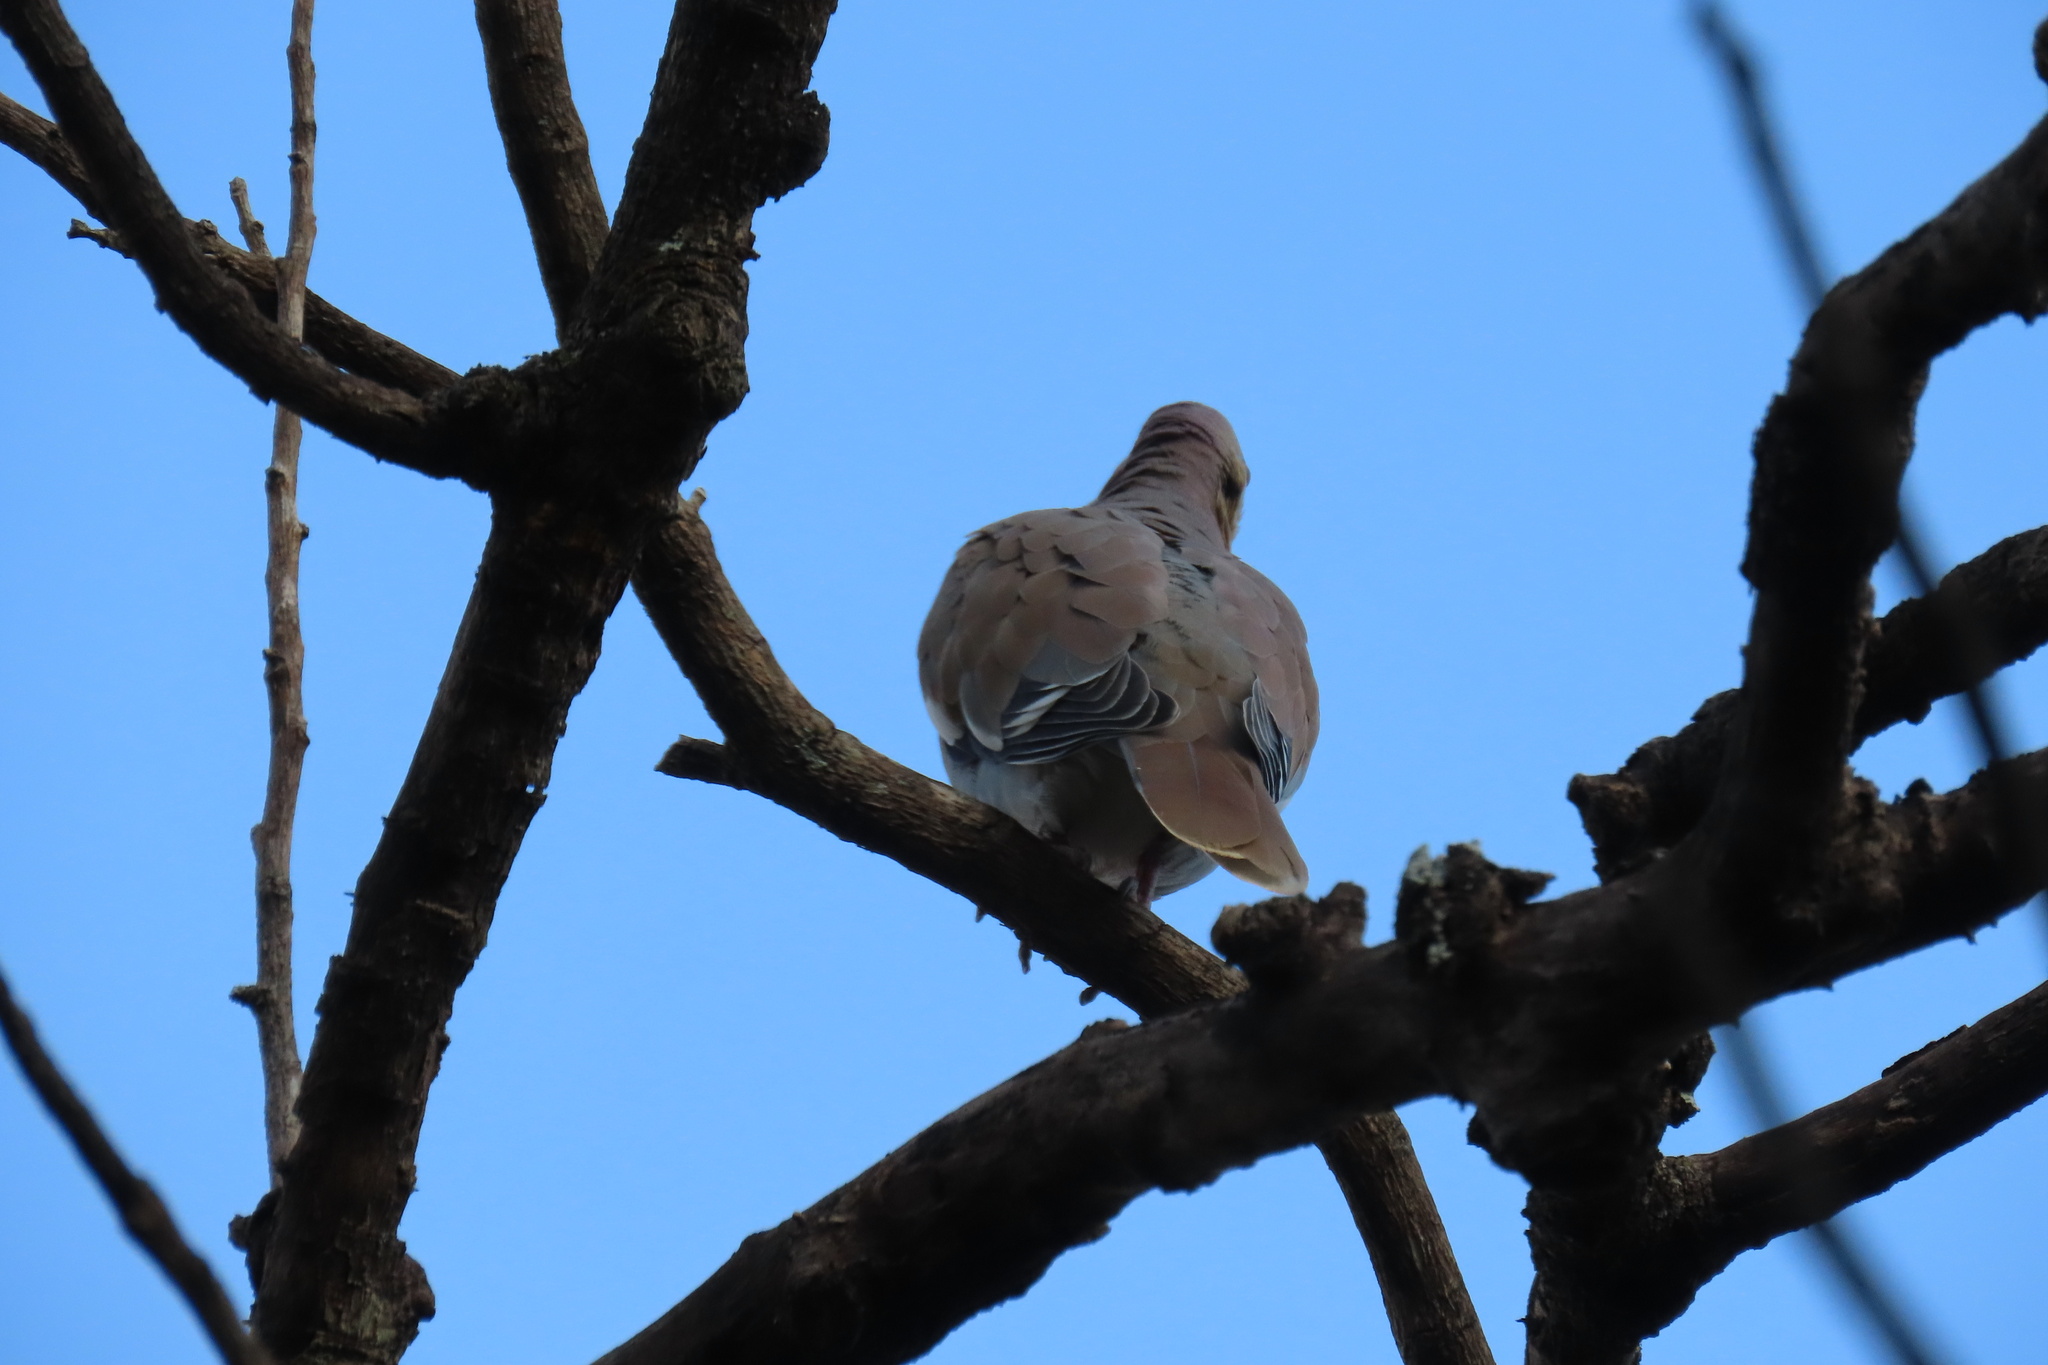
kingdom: Animalia
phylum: Chordata
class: Aves
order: Columbiformes
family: Columbidae
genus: Zenaida
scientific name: Zenaida asiatica
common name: White-winged dove
